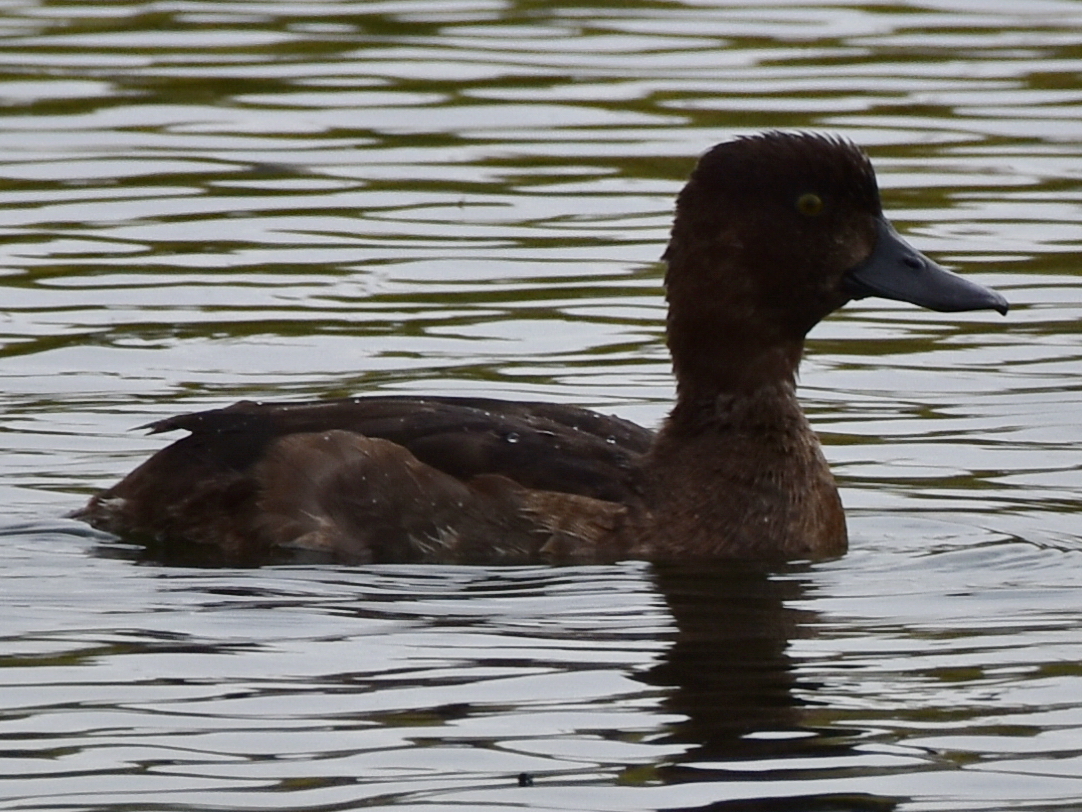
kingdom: Animalia
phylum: Chordata
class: Aves
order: Anseriformes
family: Anatidae
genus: Aythya
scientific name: Aythya fuligula
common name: Tufted duck
